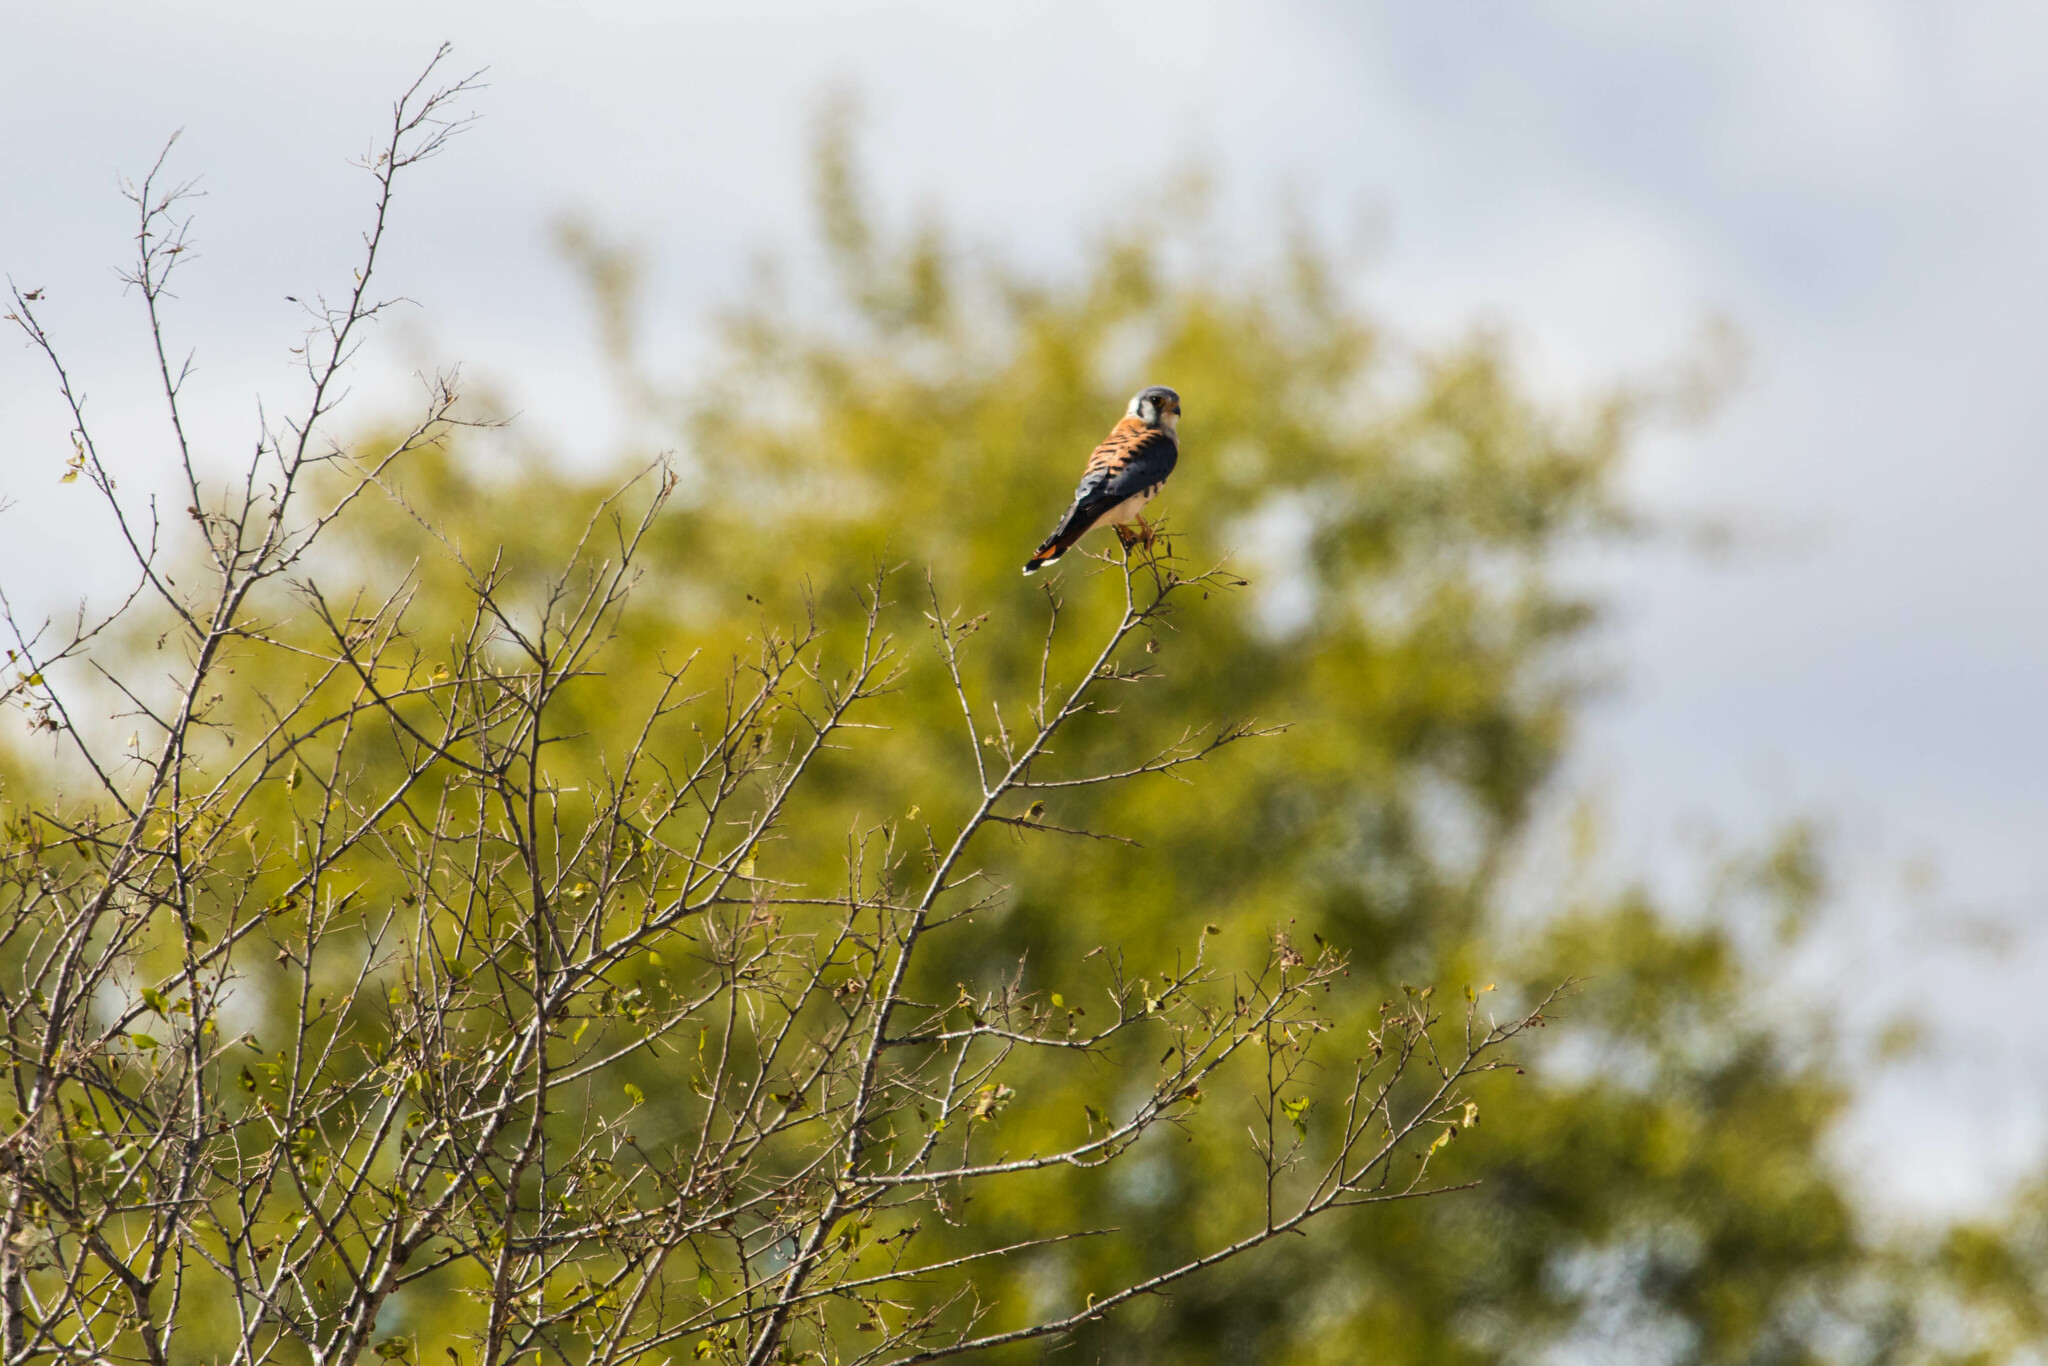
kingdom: Animalia
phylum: Chordata
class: Aves
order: Falconiformes
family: Falconidae
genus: Falco
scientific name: Falco sparverius
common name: American kestrel
